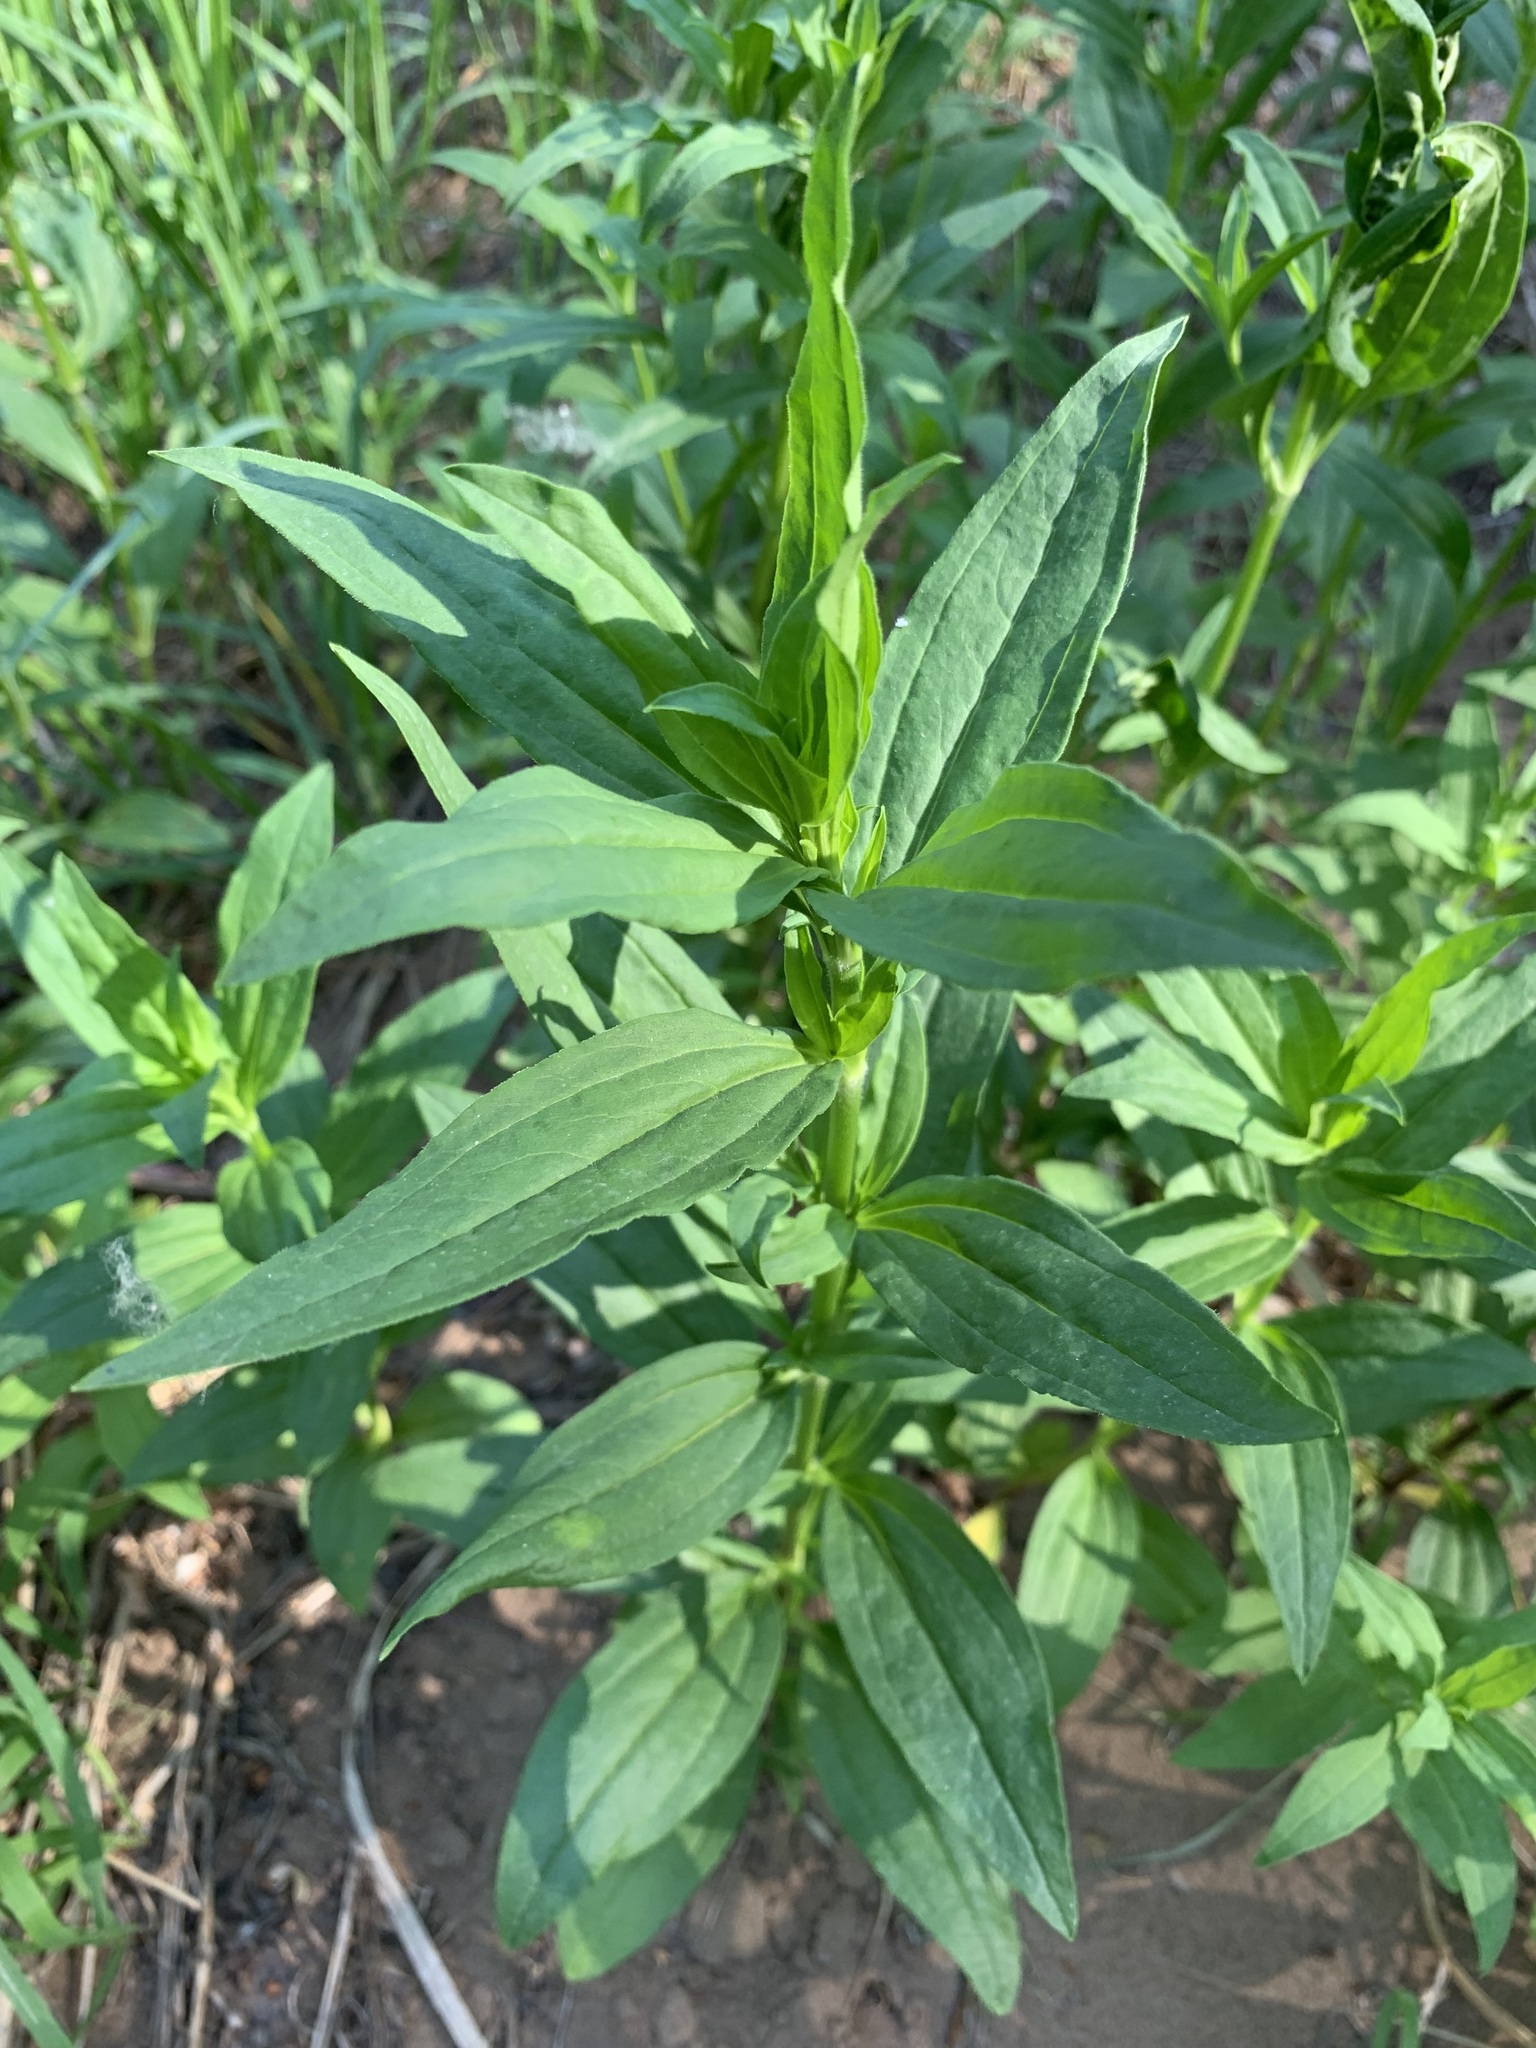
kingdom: Plantae
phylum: Tracheophyta
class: Magnoliopsida
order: Caryophyllales
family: Caryophyllaceae
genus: Saponaria
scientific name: Saponaria officinalis
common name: Soapwort
